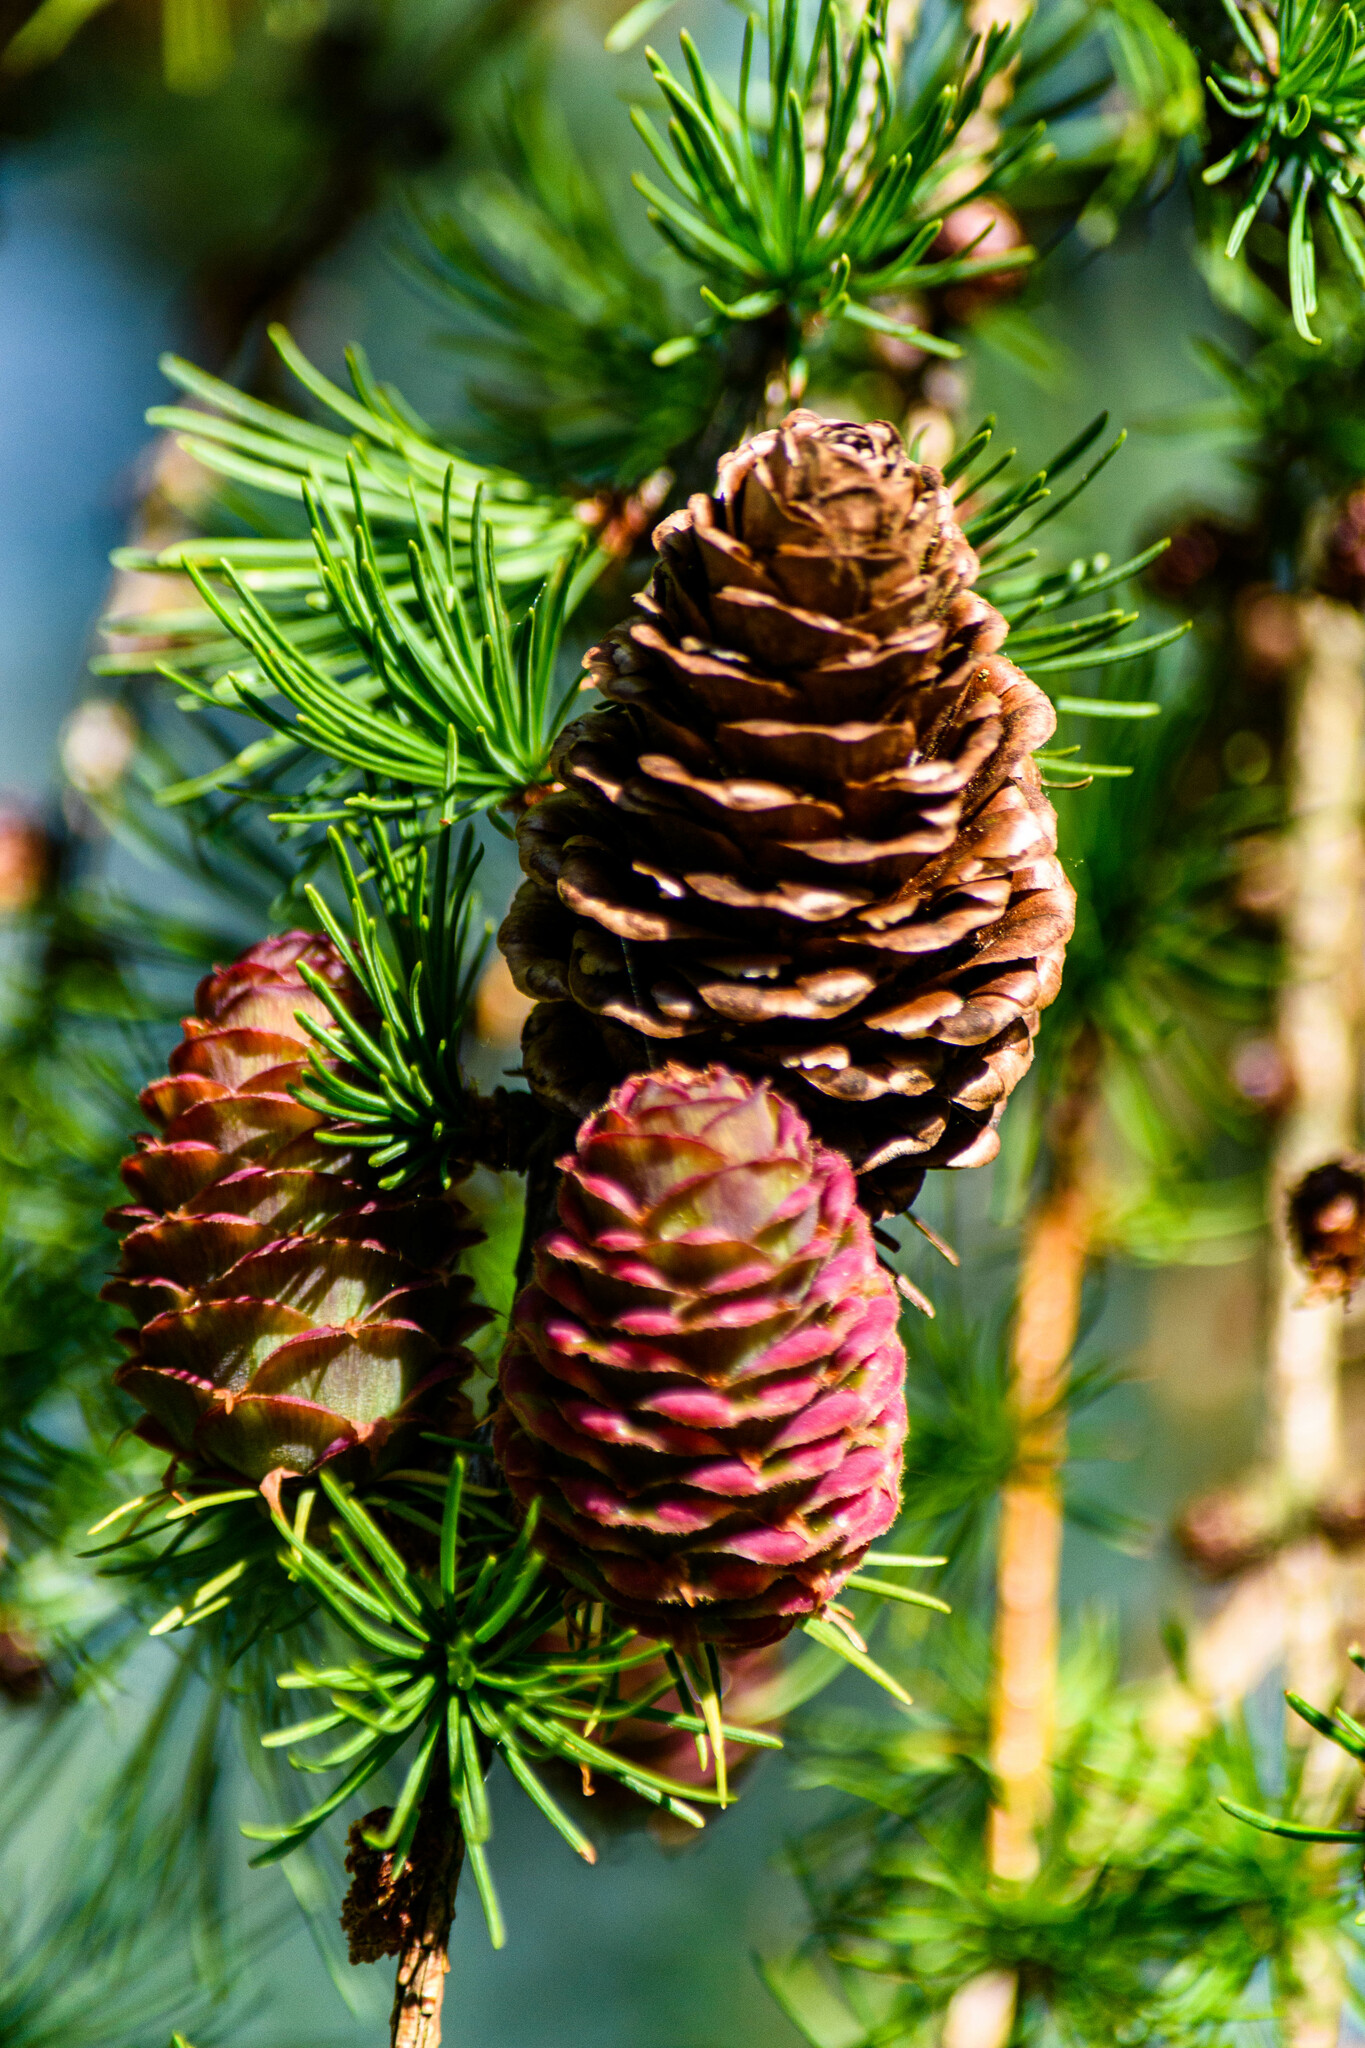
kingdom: Plantae
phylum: Tracheophyta
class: Pinopsida
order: Pinales
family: Pinaceae
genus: Larix
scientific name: Larix marschlinsii
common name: Hybrid larch
